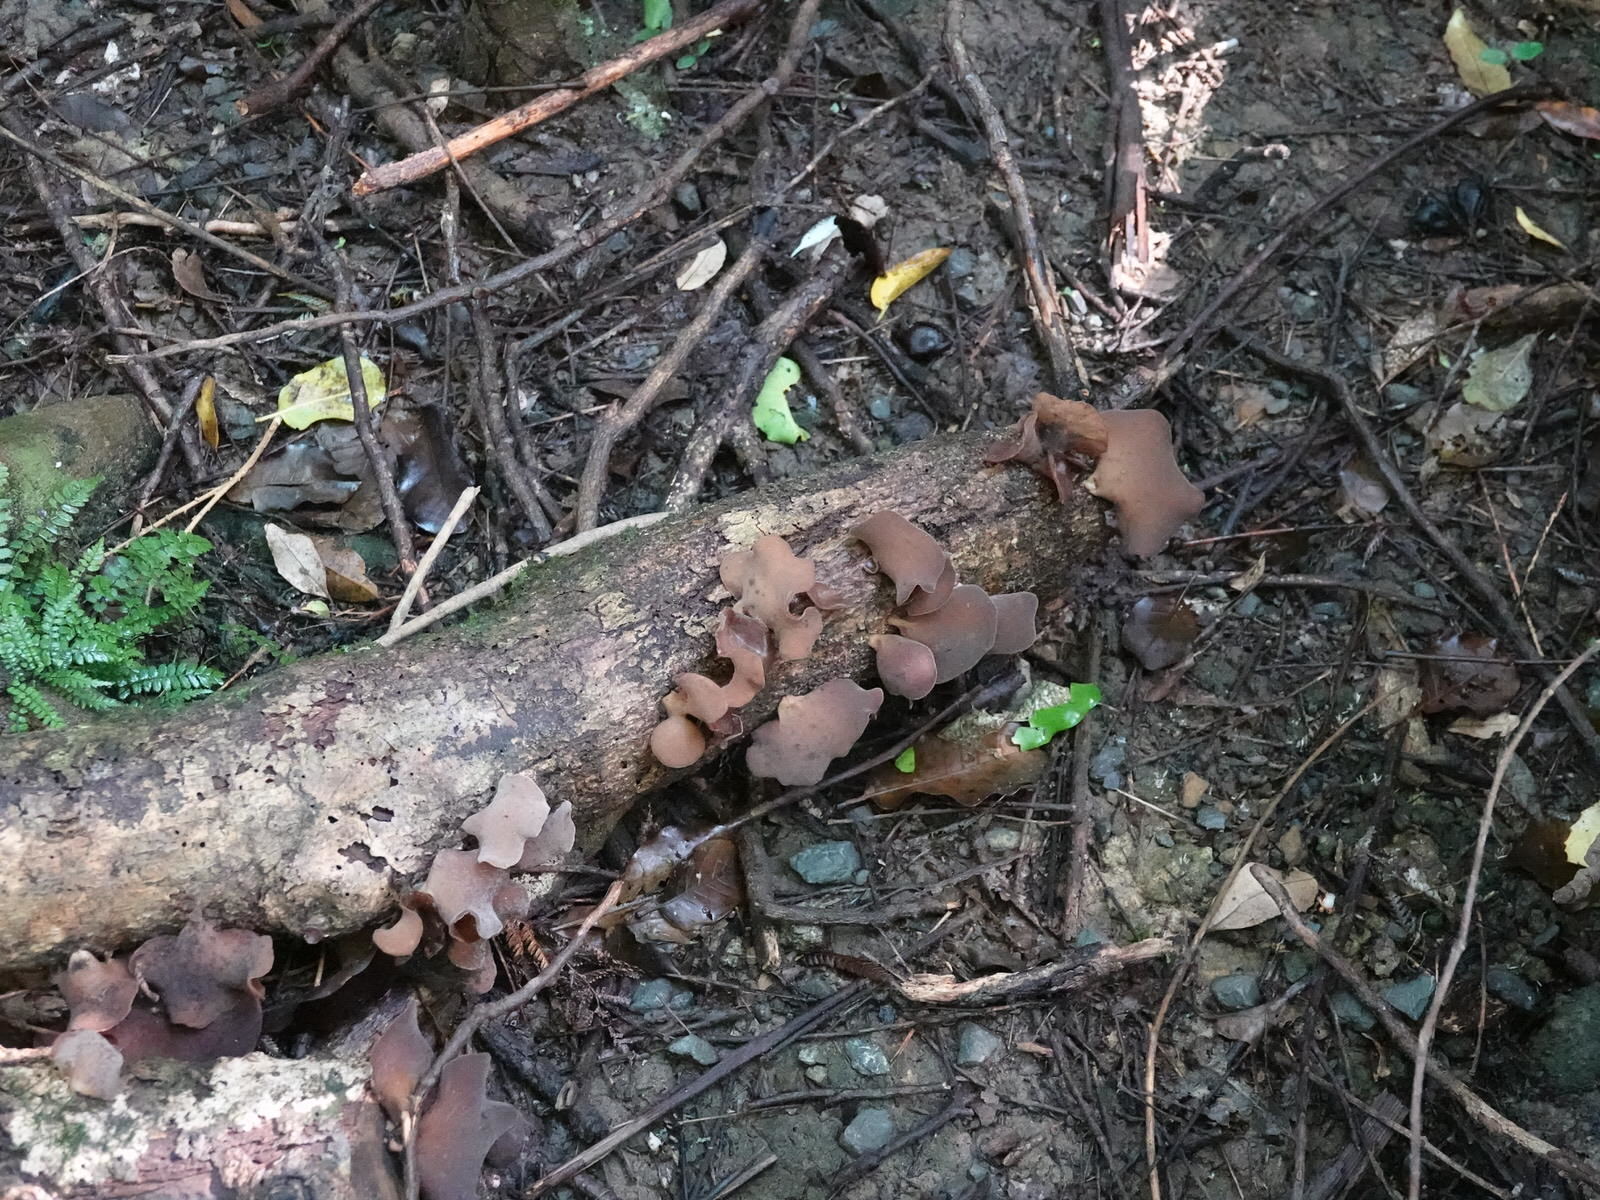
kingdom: Fungi
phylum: Basidiomycota
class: Agaricomycetes
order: Auriculariales
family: Auriculariaceae
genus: Auricularia
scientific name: Auricularia cornea
